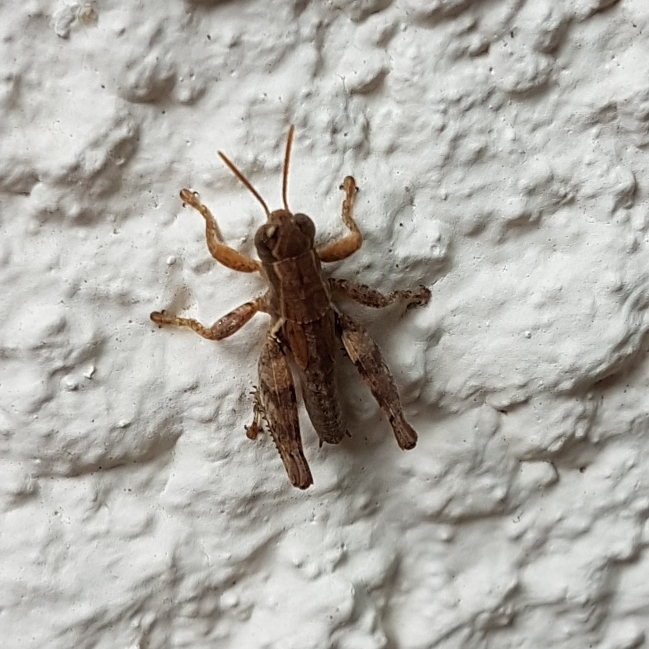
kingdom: Animalia
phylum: Arthropoda
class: Insecta
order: Orthoptera
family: Acrididae
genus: Pezotettix
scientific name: Pezotettix giornae
